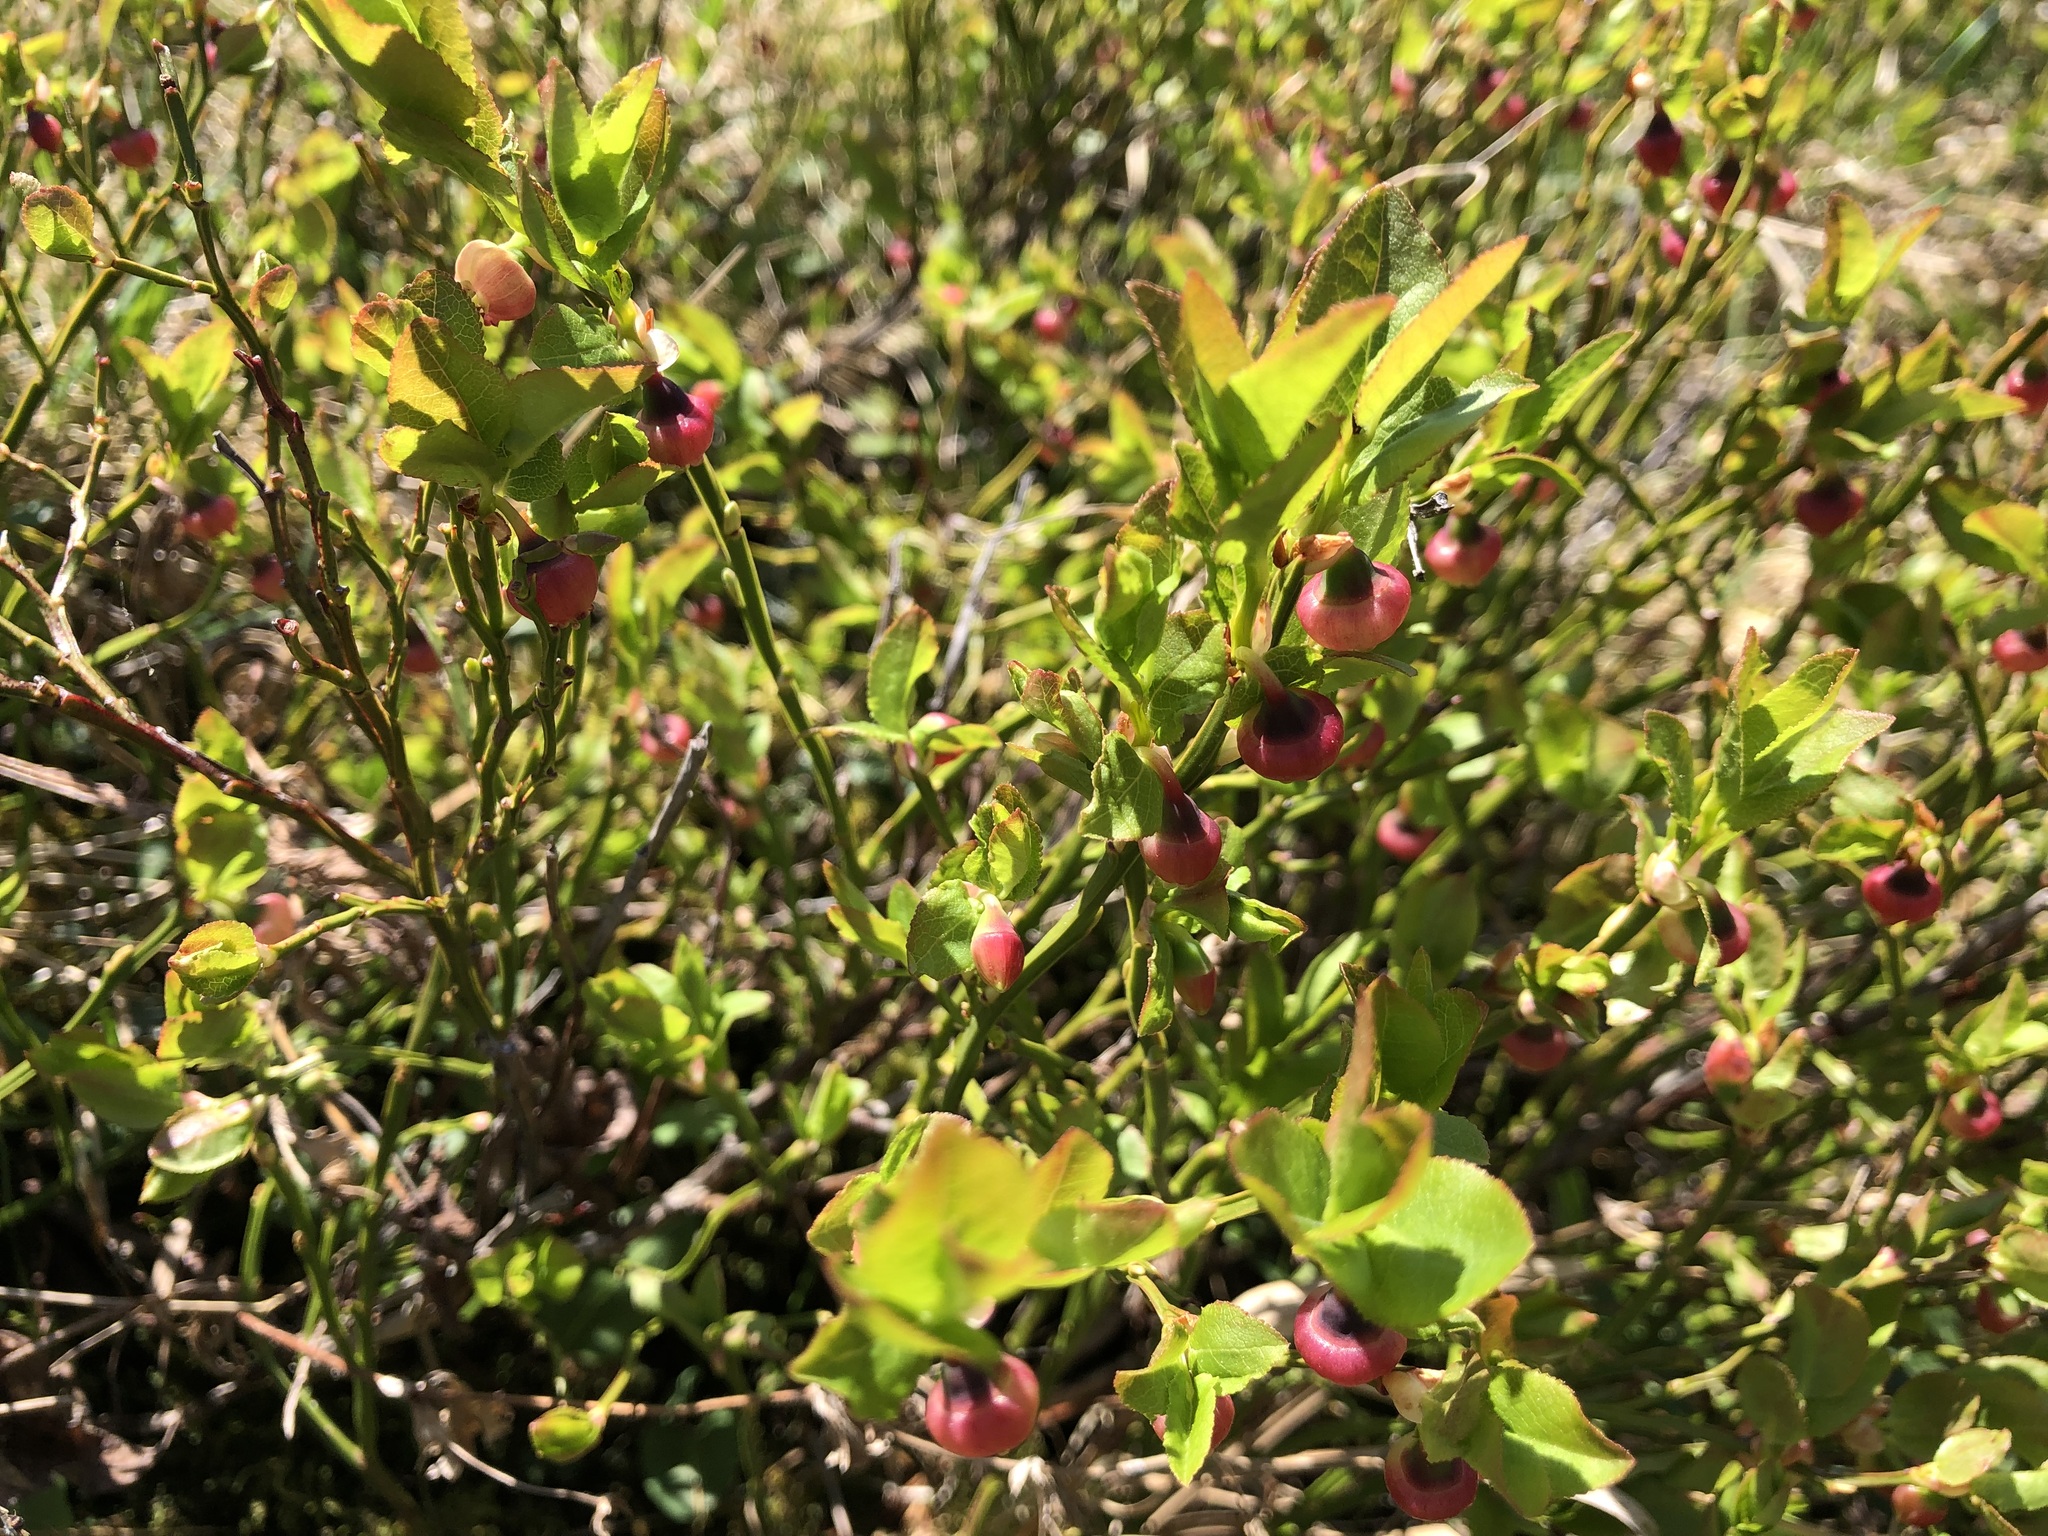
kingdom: Plantae
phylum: Tracheophyta
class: Magnoliopsida
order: Ericales
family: Ericaceae
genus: Vaccinium
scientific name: Vaccinium myrtillus
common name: Bilberry
